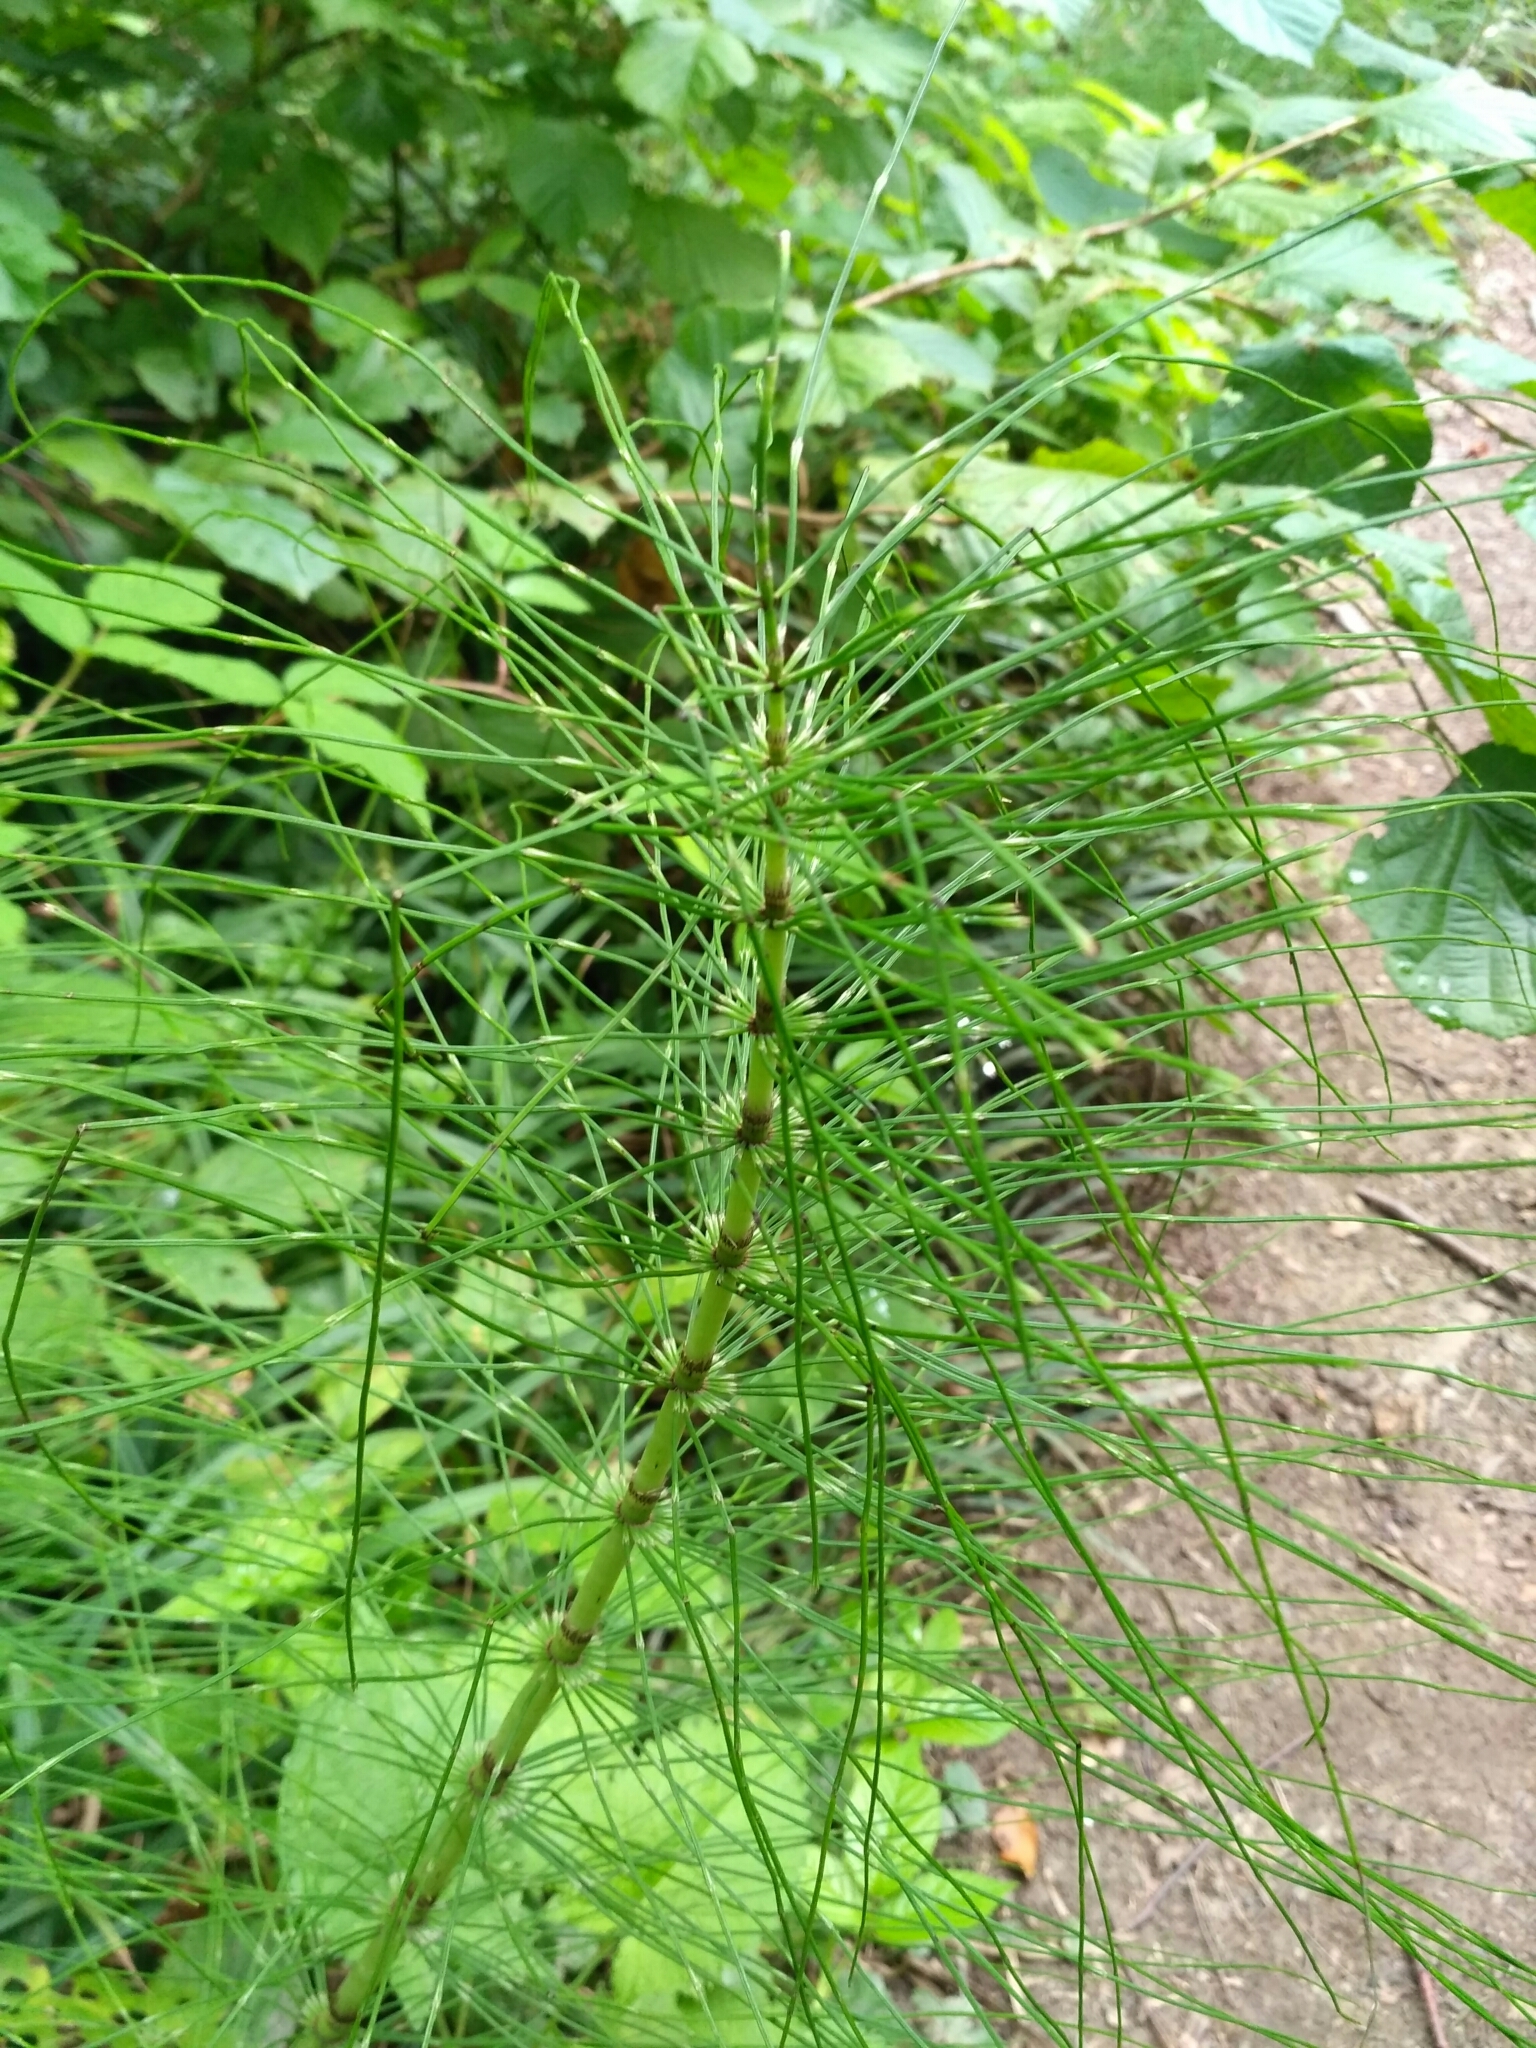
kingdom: Plantae
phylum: Tracheophyta
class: Polypodiopsida
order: Equisetales
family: Equisetaceae
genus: Equisetum
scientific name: Equisetum telmateia
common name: Great horsetail
